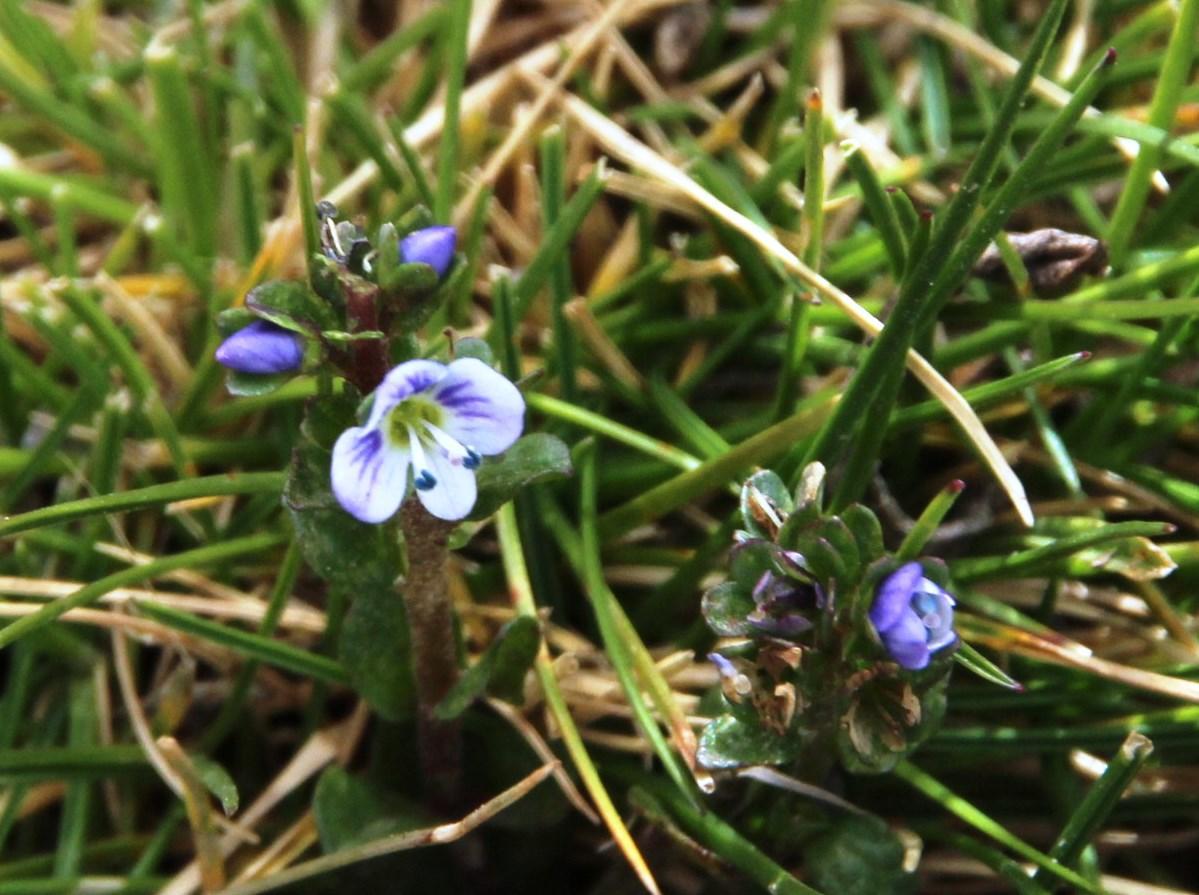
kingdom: Plantae
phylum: Tracheophyta
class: Magnoliopsida
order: Lamiales
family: Plantaginaceae
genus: Veronica
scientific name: Veronica serpyllifolia
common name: Thyme-leaved speedwell
